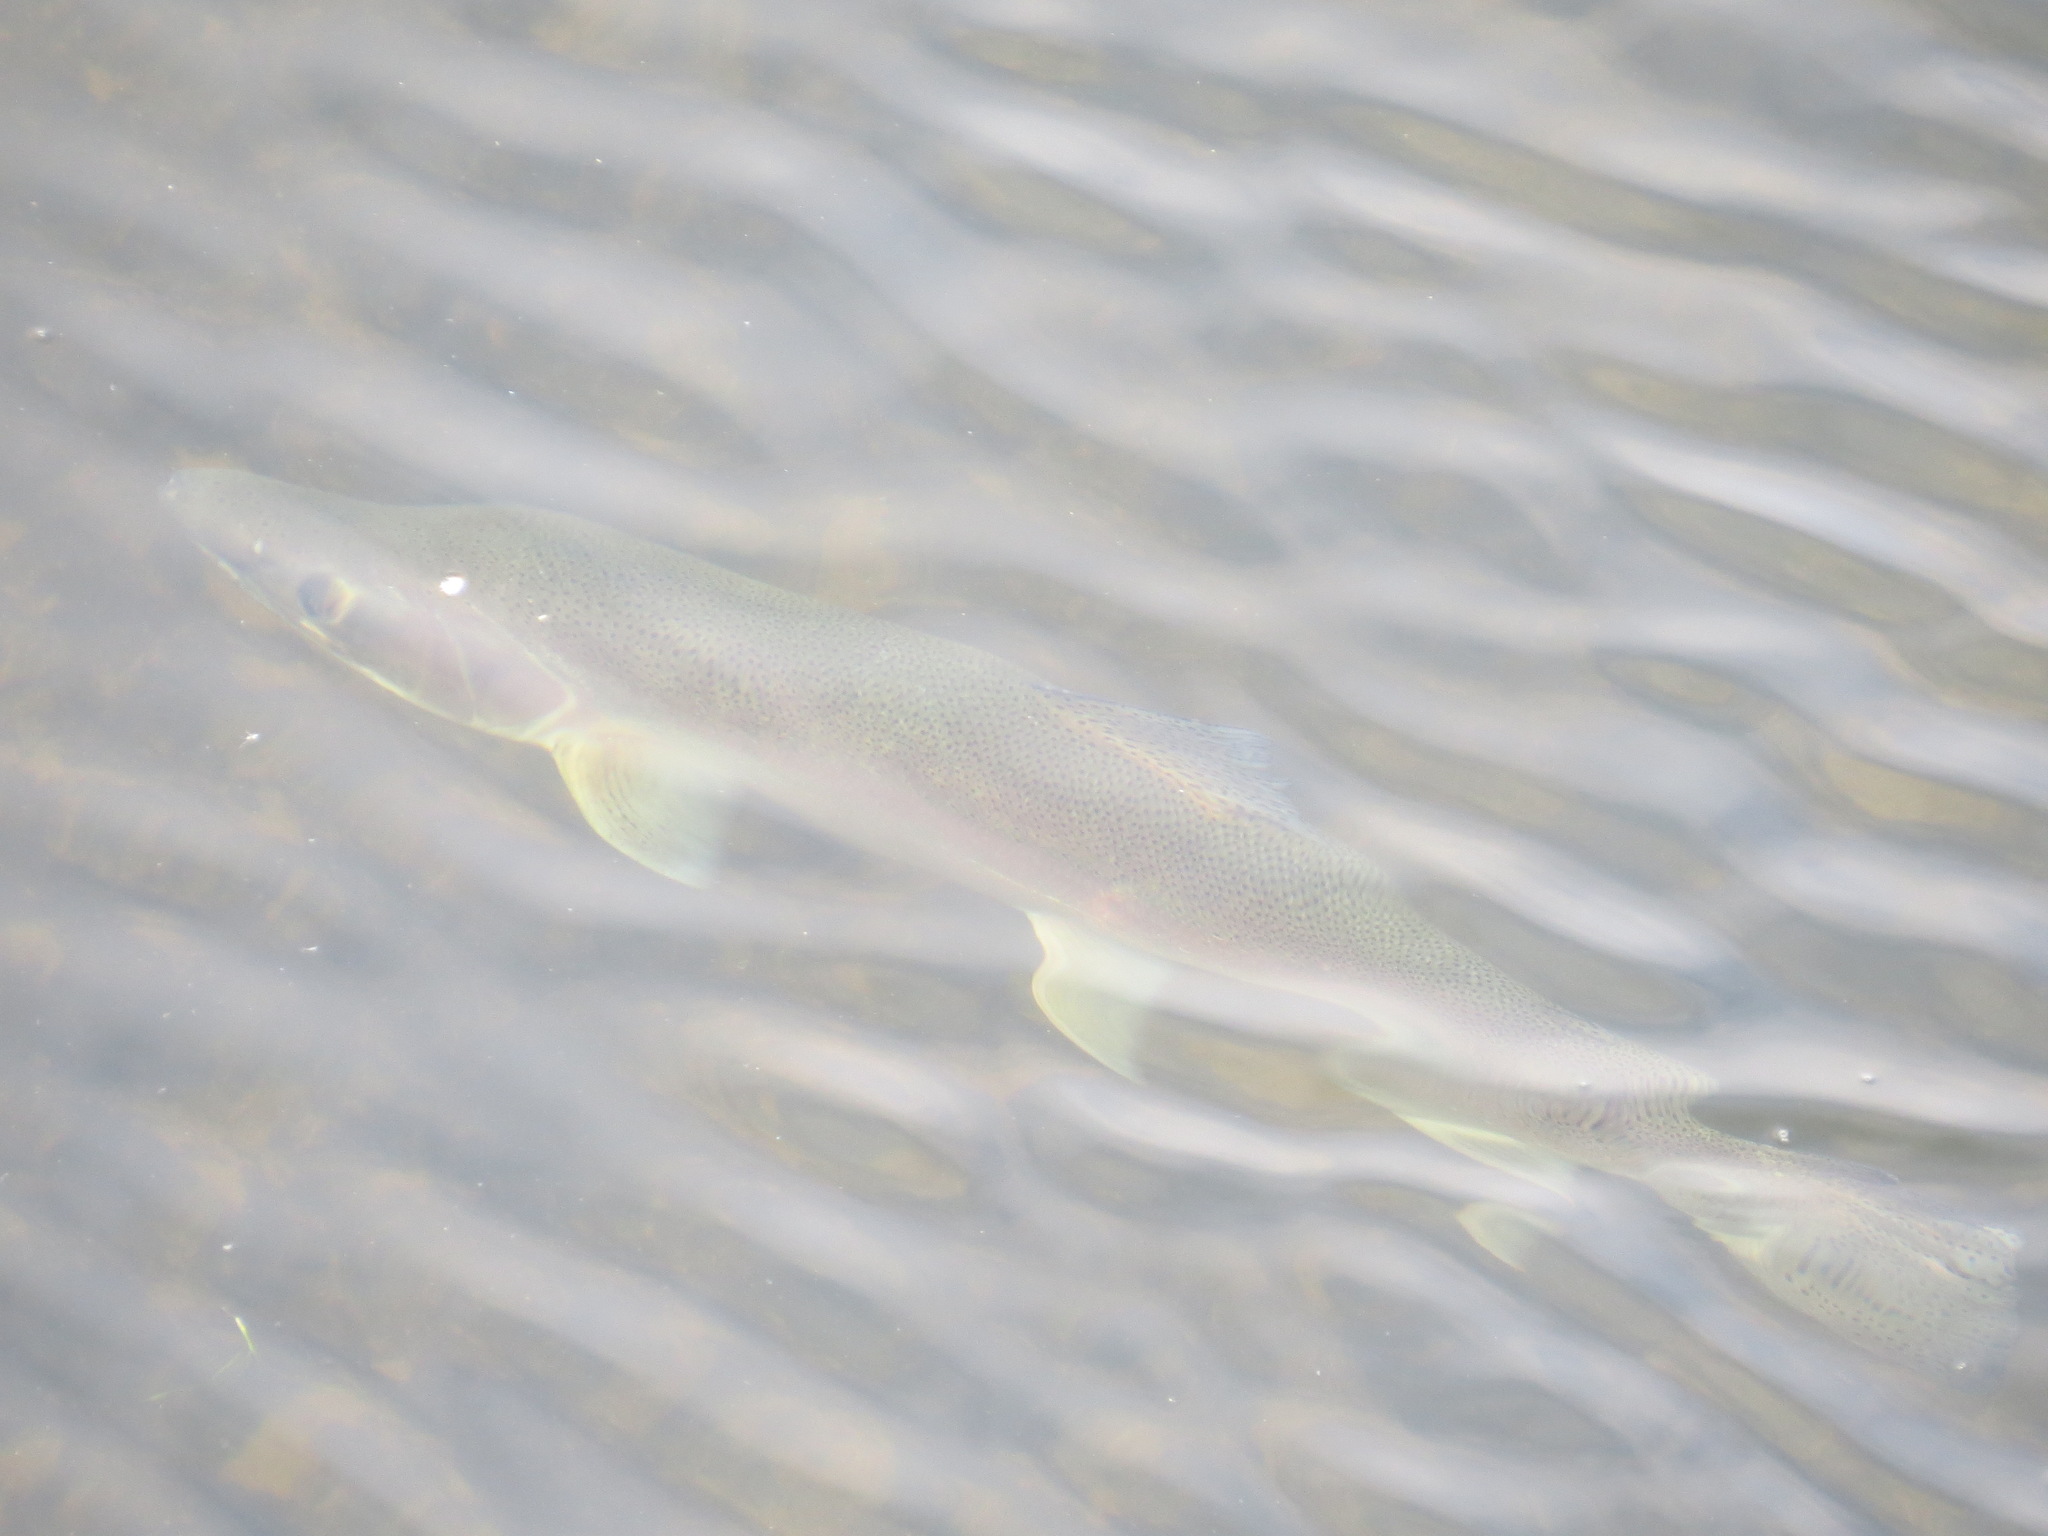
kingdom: Animalia
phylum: Chordata
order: Salmoniformes
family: Salmonidae
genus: Oncorhynchus
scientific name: Oncorhynchus mykiss
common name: Rainbow trout
